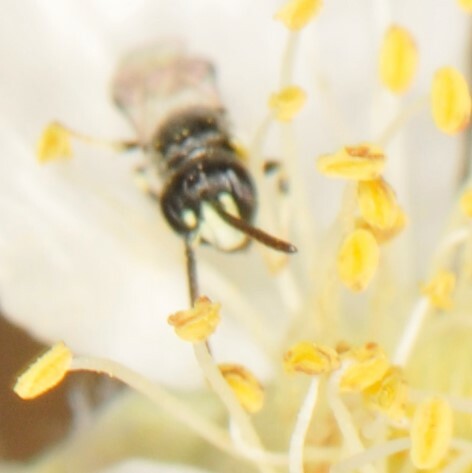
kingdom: Animalia
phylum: Arthropoda
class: Insecta
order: Hymenoptera
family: Colletidae
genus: Hylaeus
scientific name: Hylaeus
